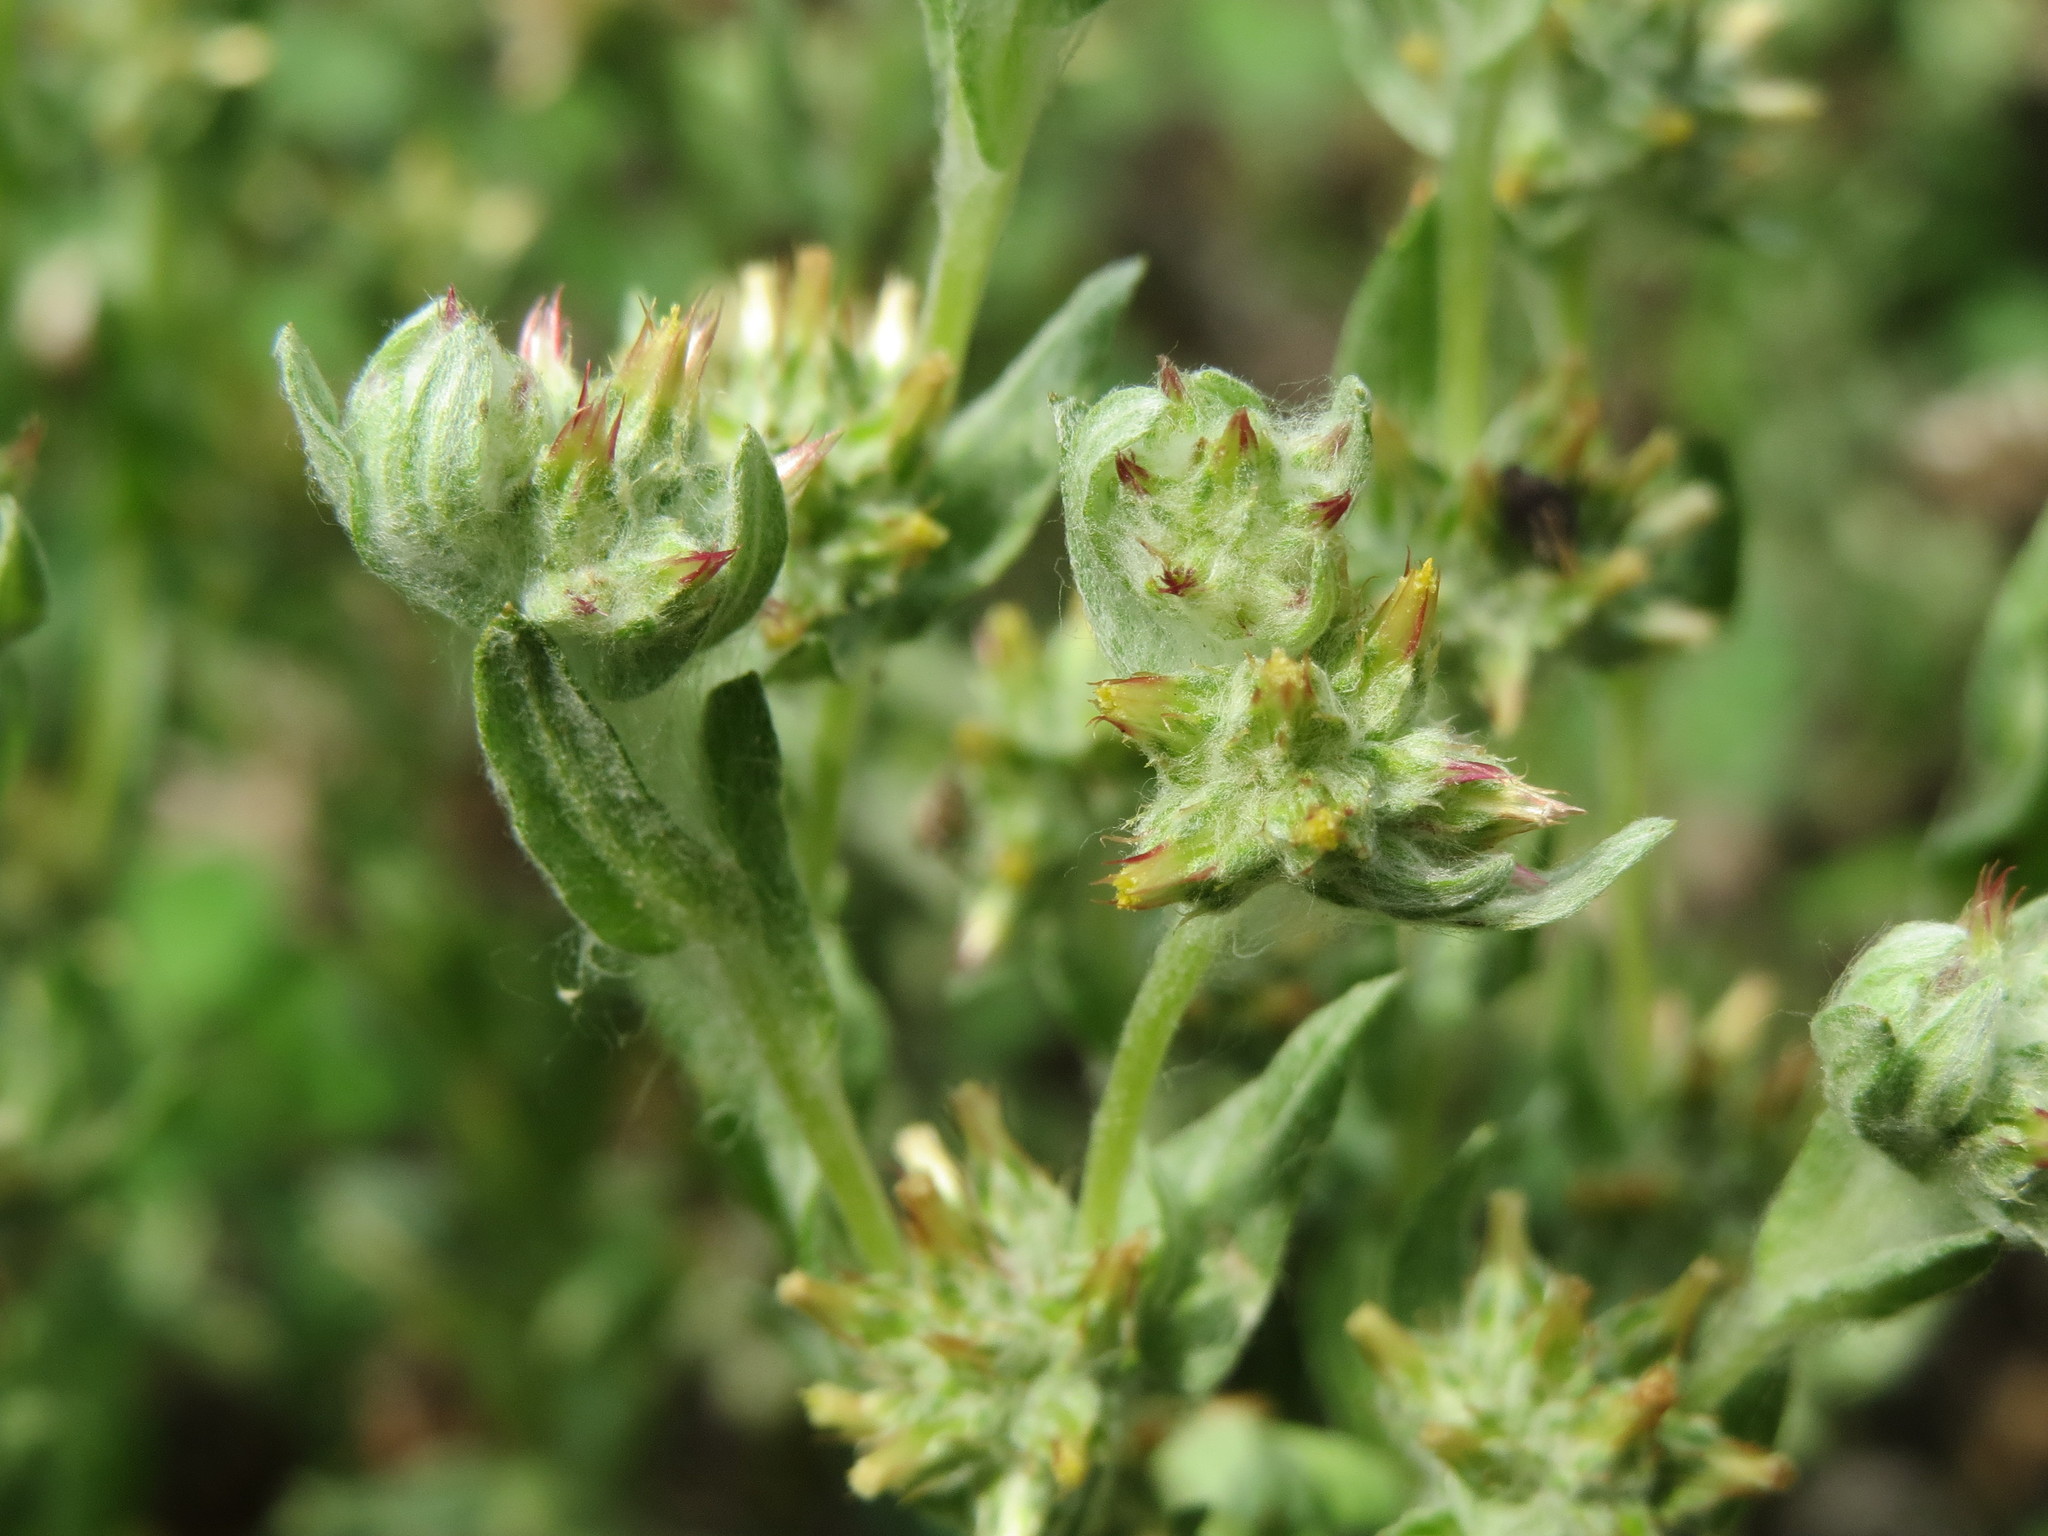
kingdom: Plantae
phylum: Tracheophyta
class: Magnoliopsida
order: Asterales
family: Asteraceae
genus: Filago
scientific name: Filago lutescens
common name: Red-tipped cudweed
